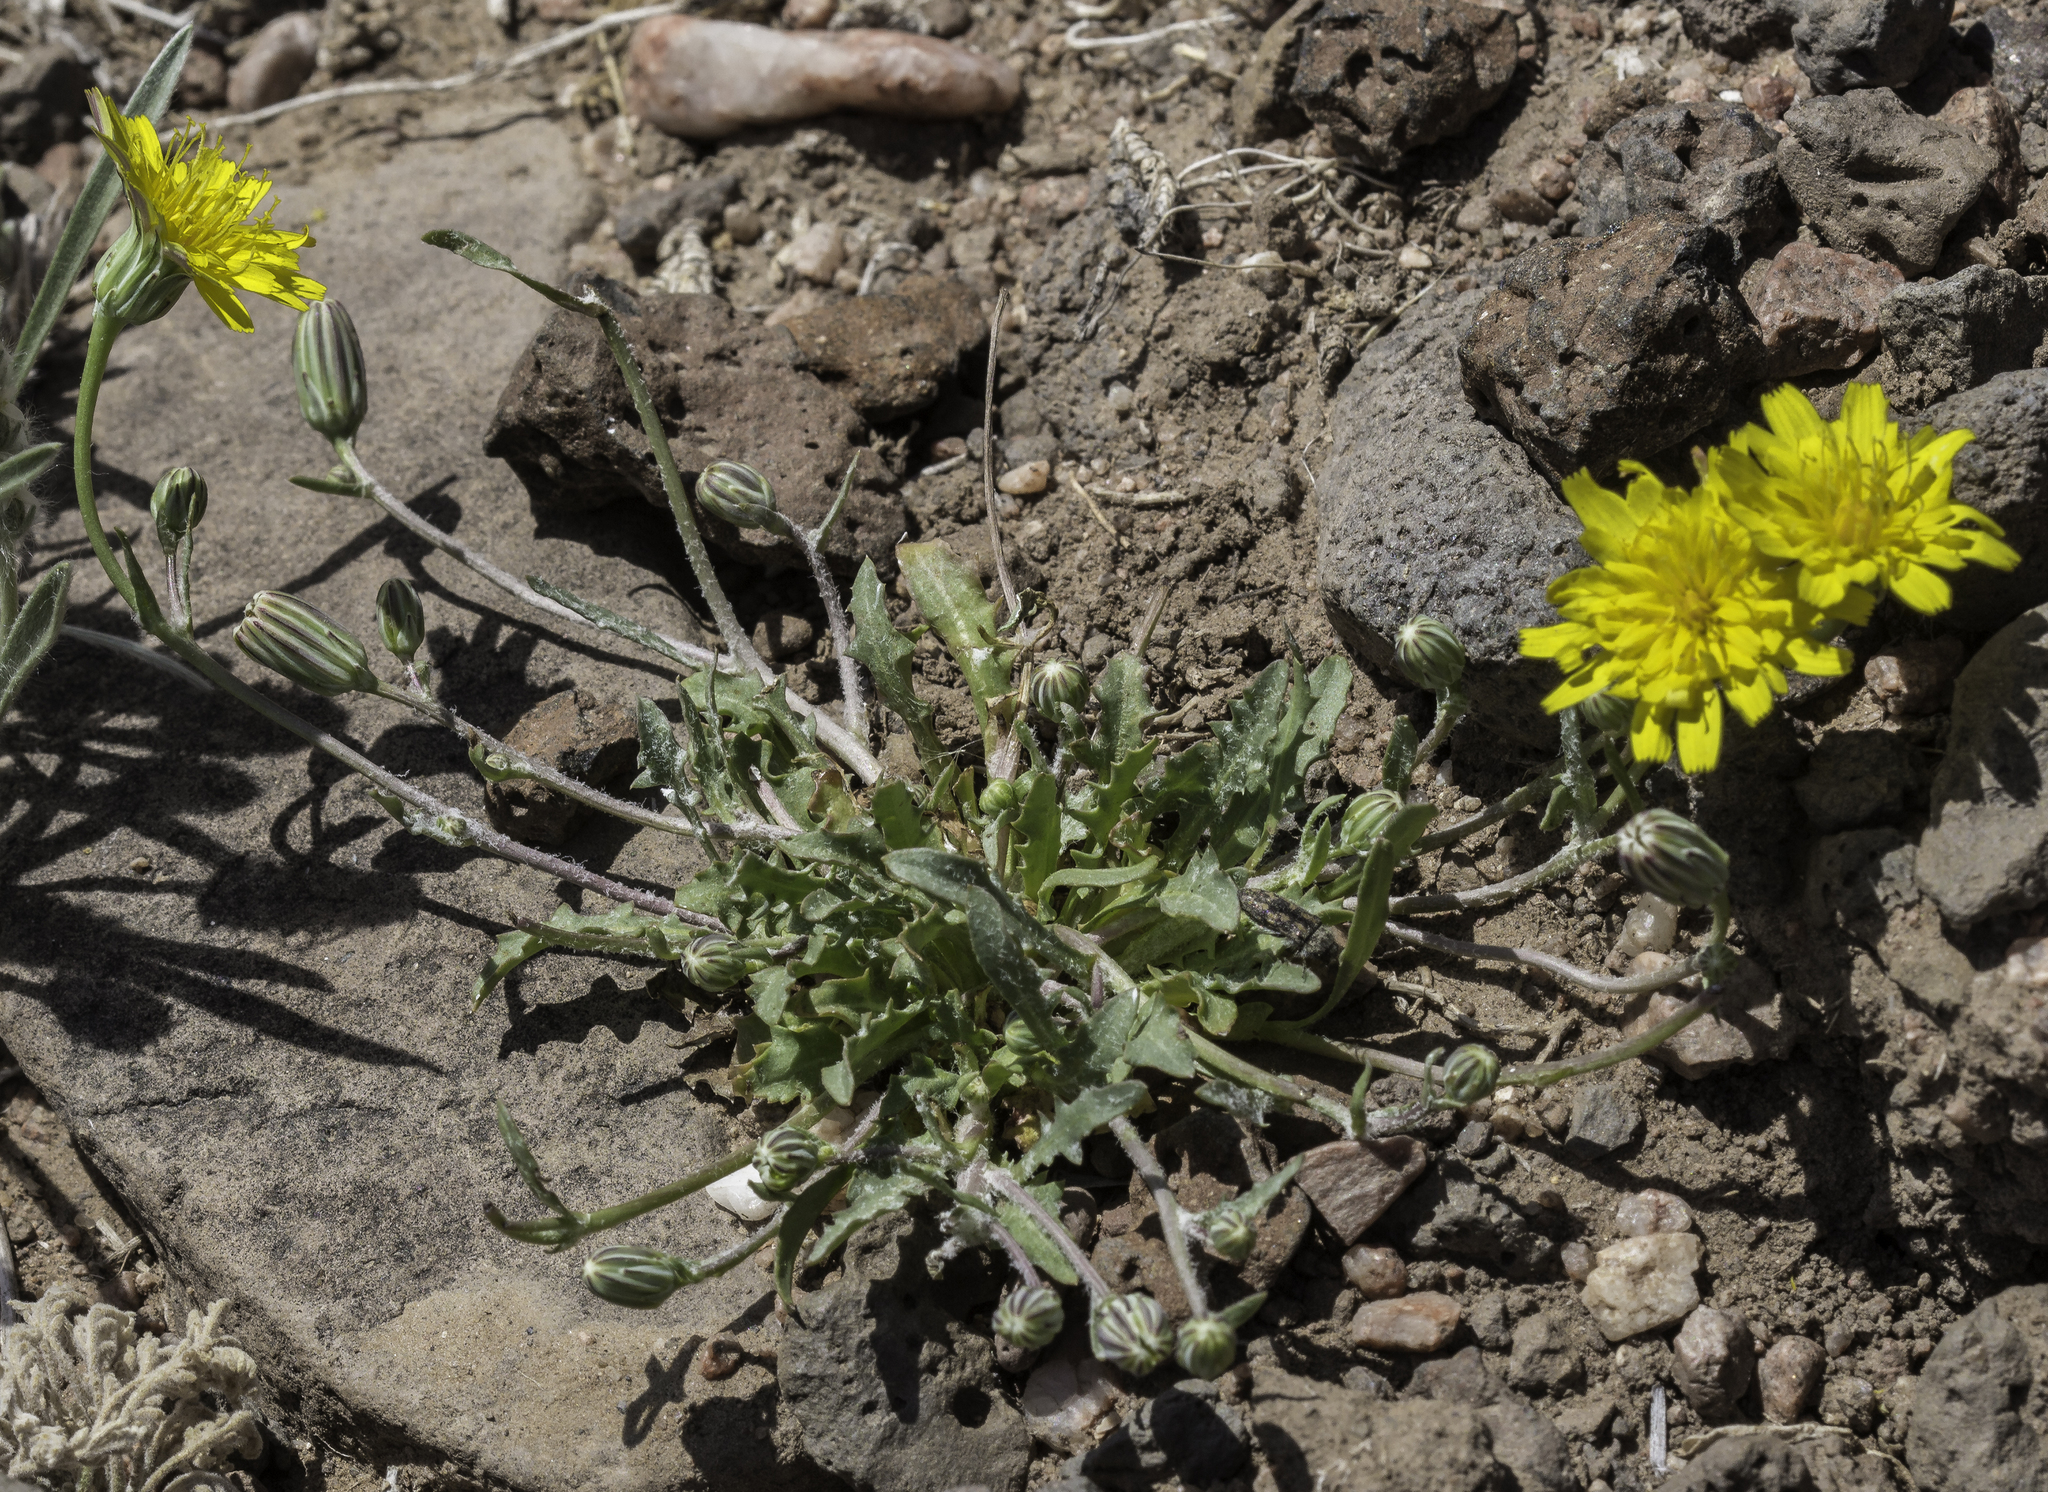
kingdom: Plantae
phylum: Tracheophyta
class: Magnoliopsida
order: Asterales
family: Asteraceae
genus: Malacothrix
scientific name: Malacothrix fendleri
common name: Fendler's desert-dandelion
